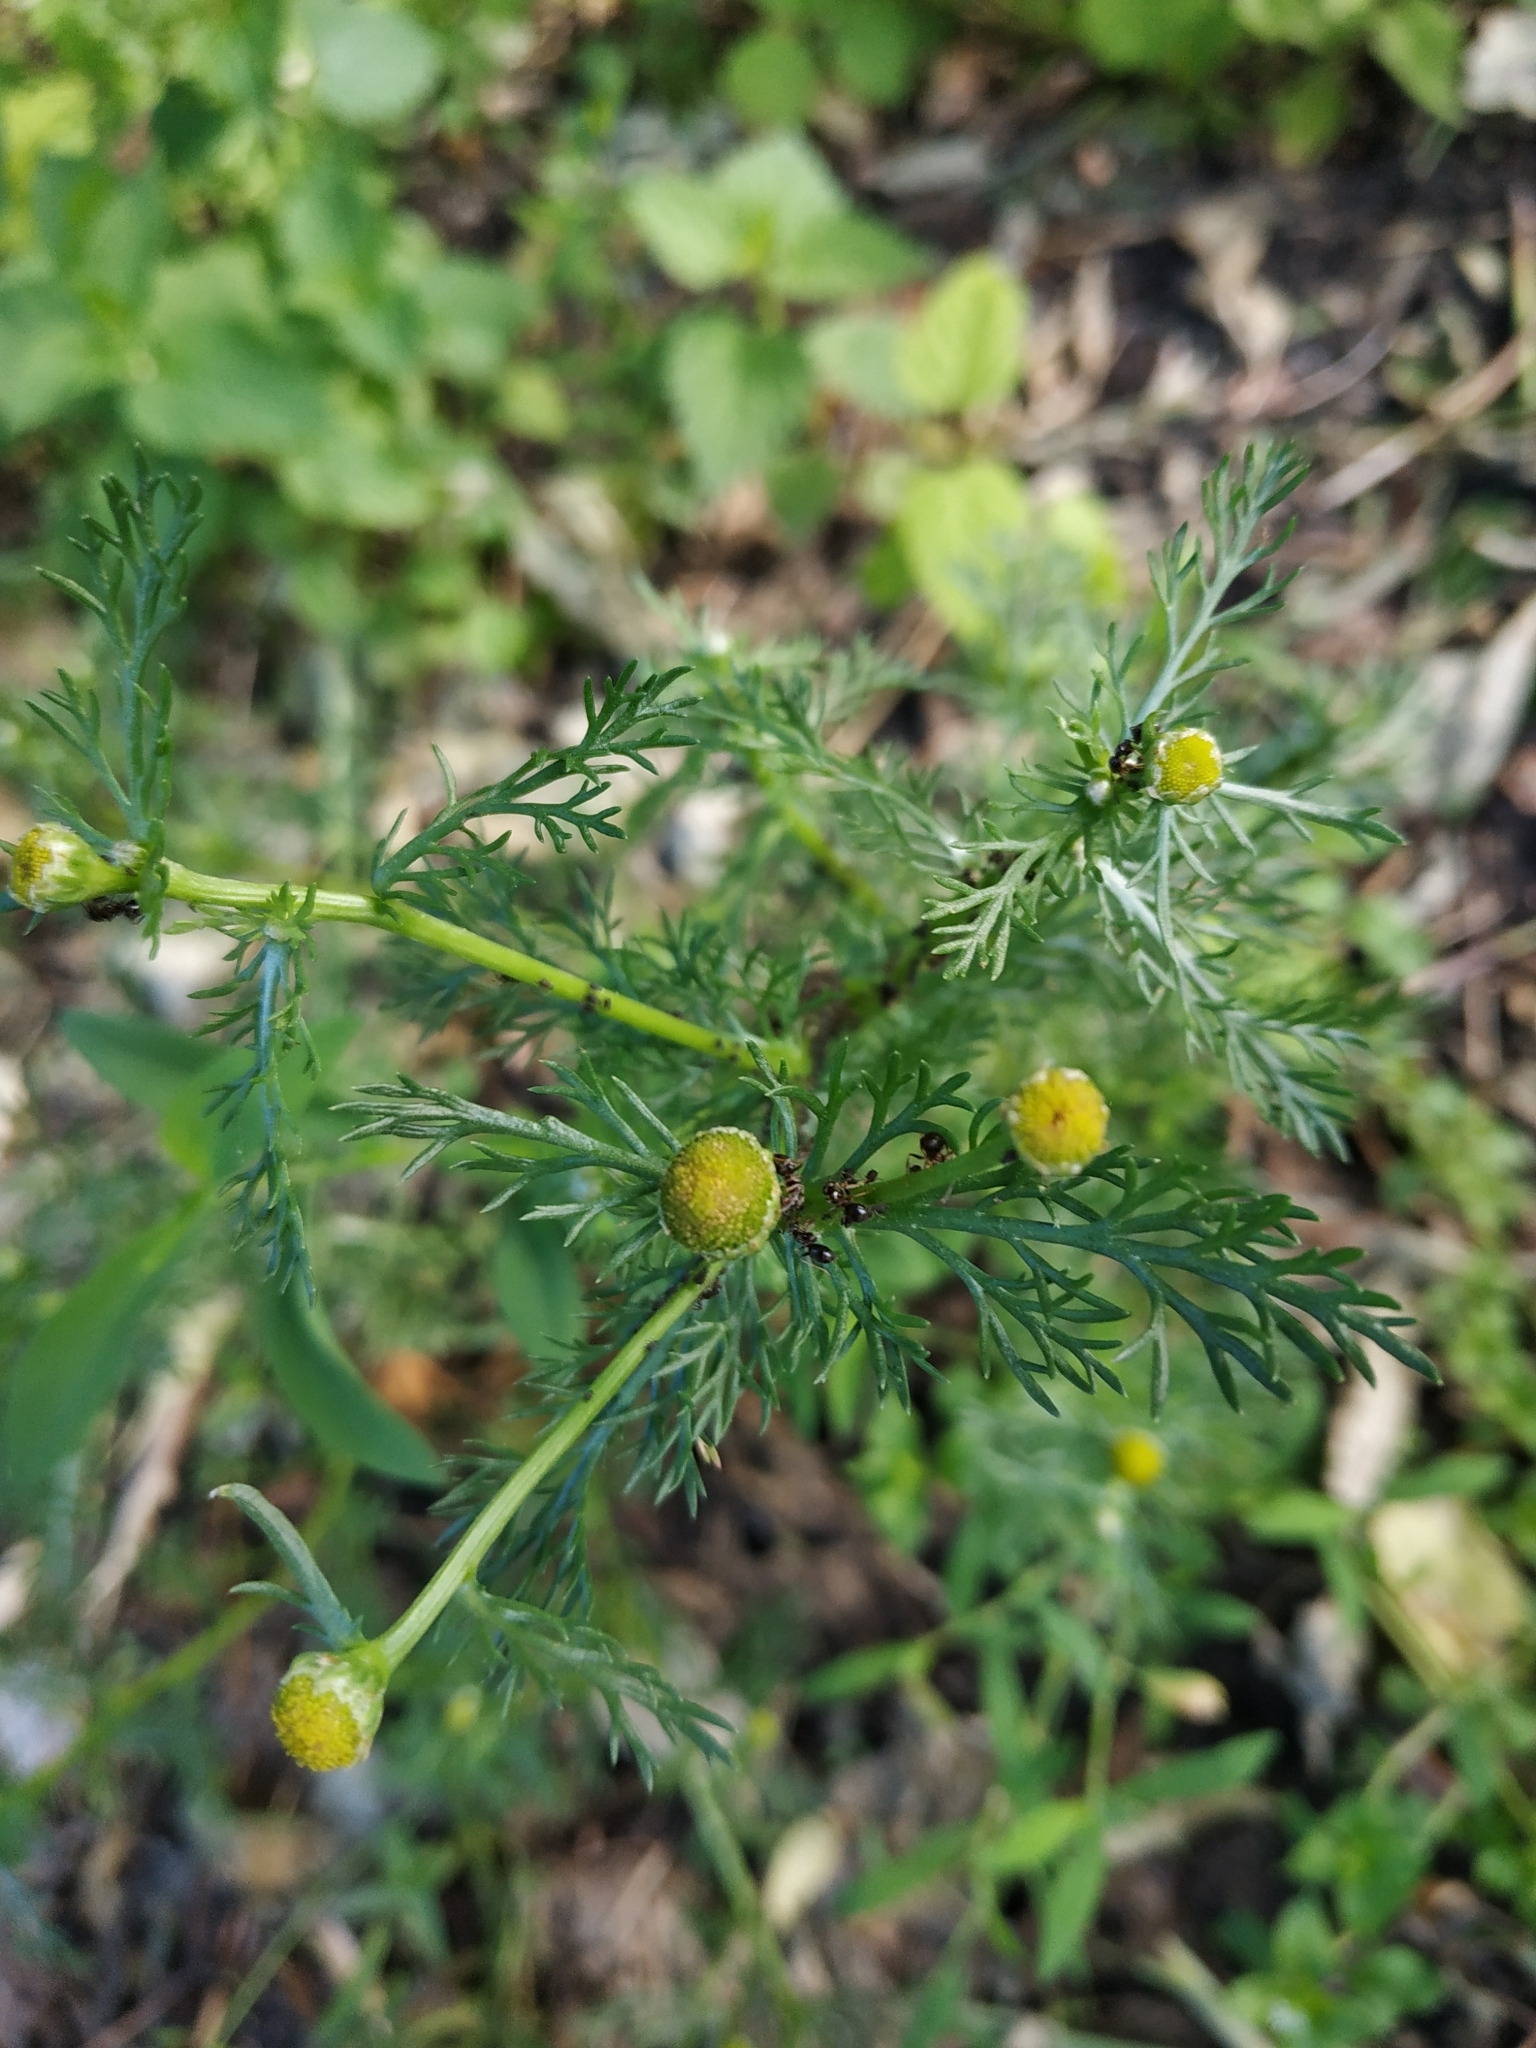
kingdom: Plantae
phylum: Tracheophyta
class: Magnoliopsida
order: Asterales
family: Asteraceae
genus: Matricaria
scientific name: Matricaria discoidea
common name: Disc mayweed
